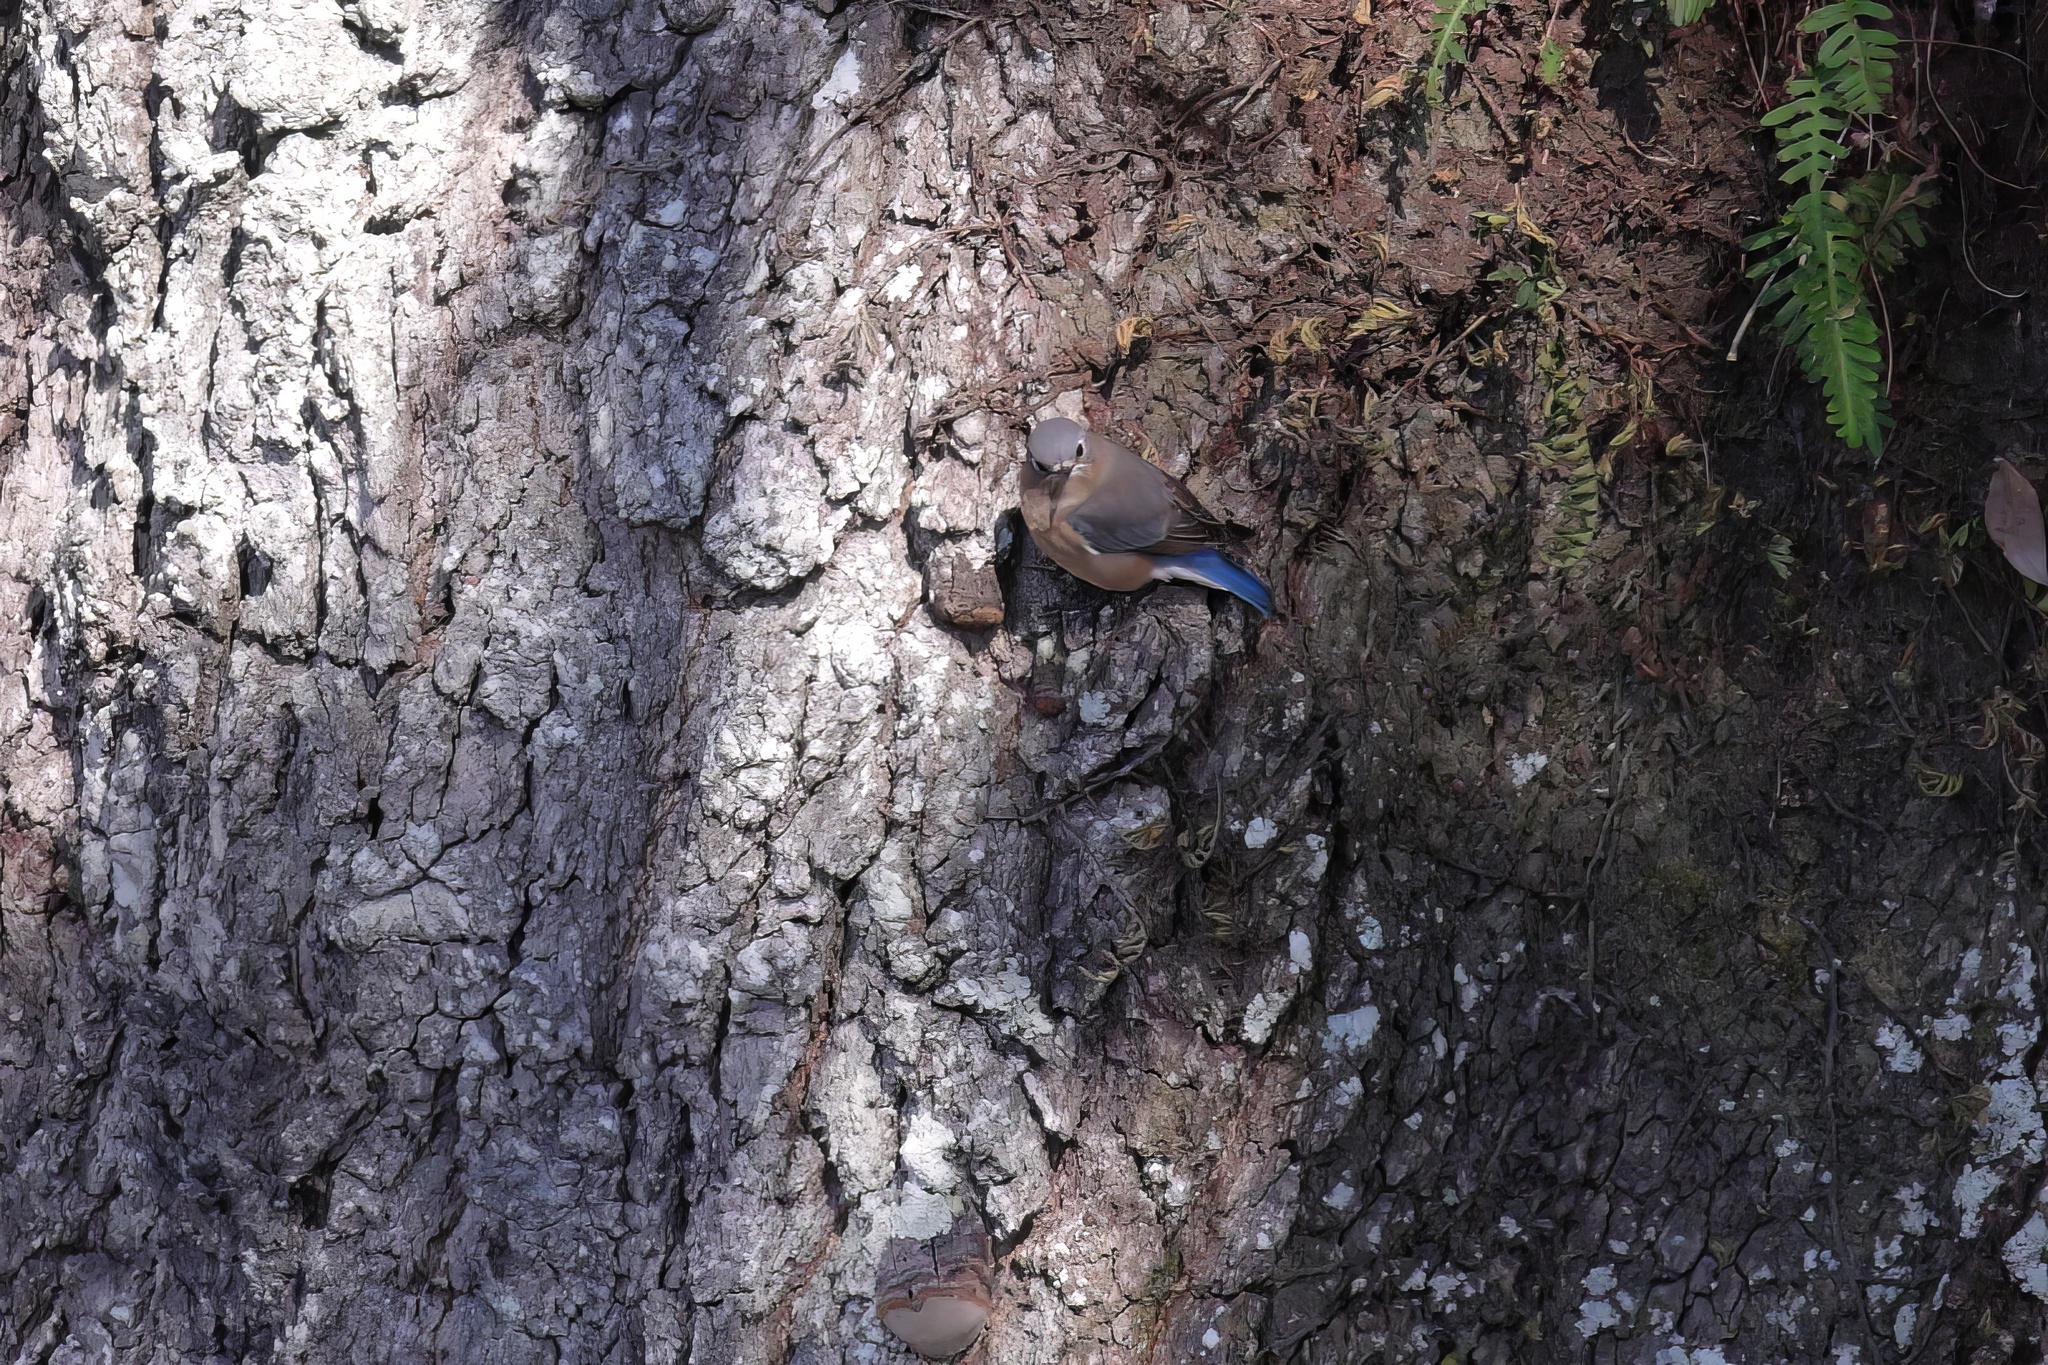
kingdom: Animalia
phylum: Chordata
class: Aves
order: Passeriformes
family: Turdidae
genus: Sialia
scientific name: Sialia sialis
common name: Eastern bluebird
